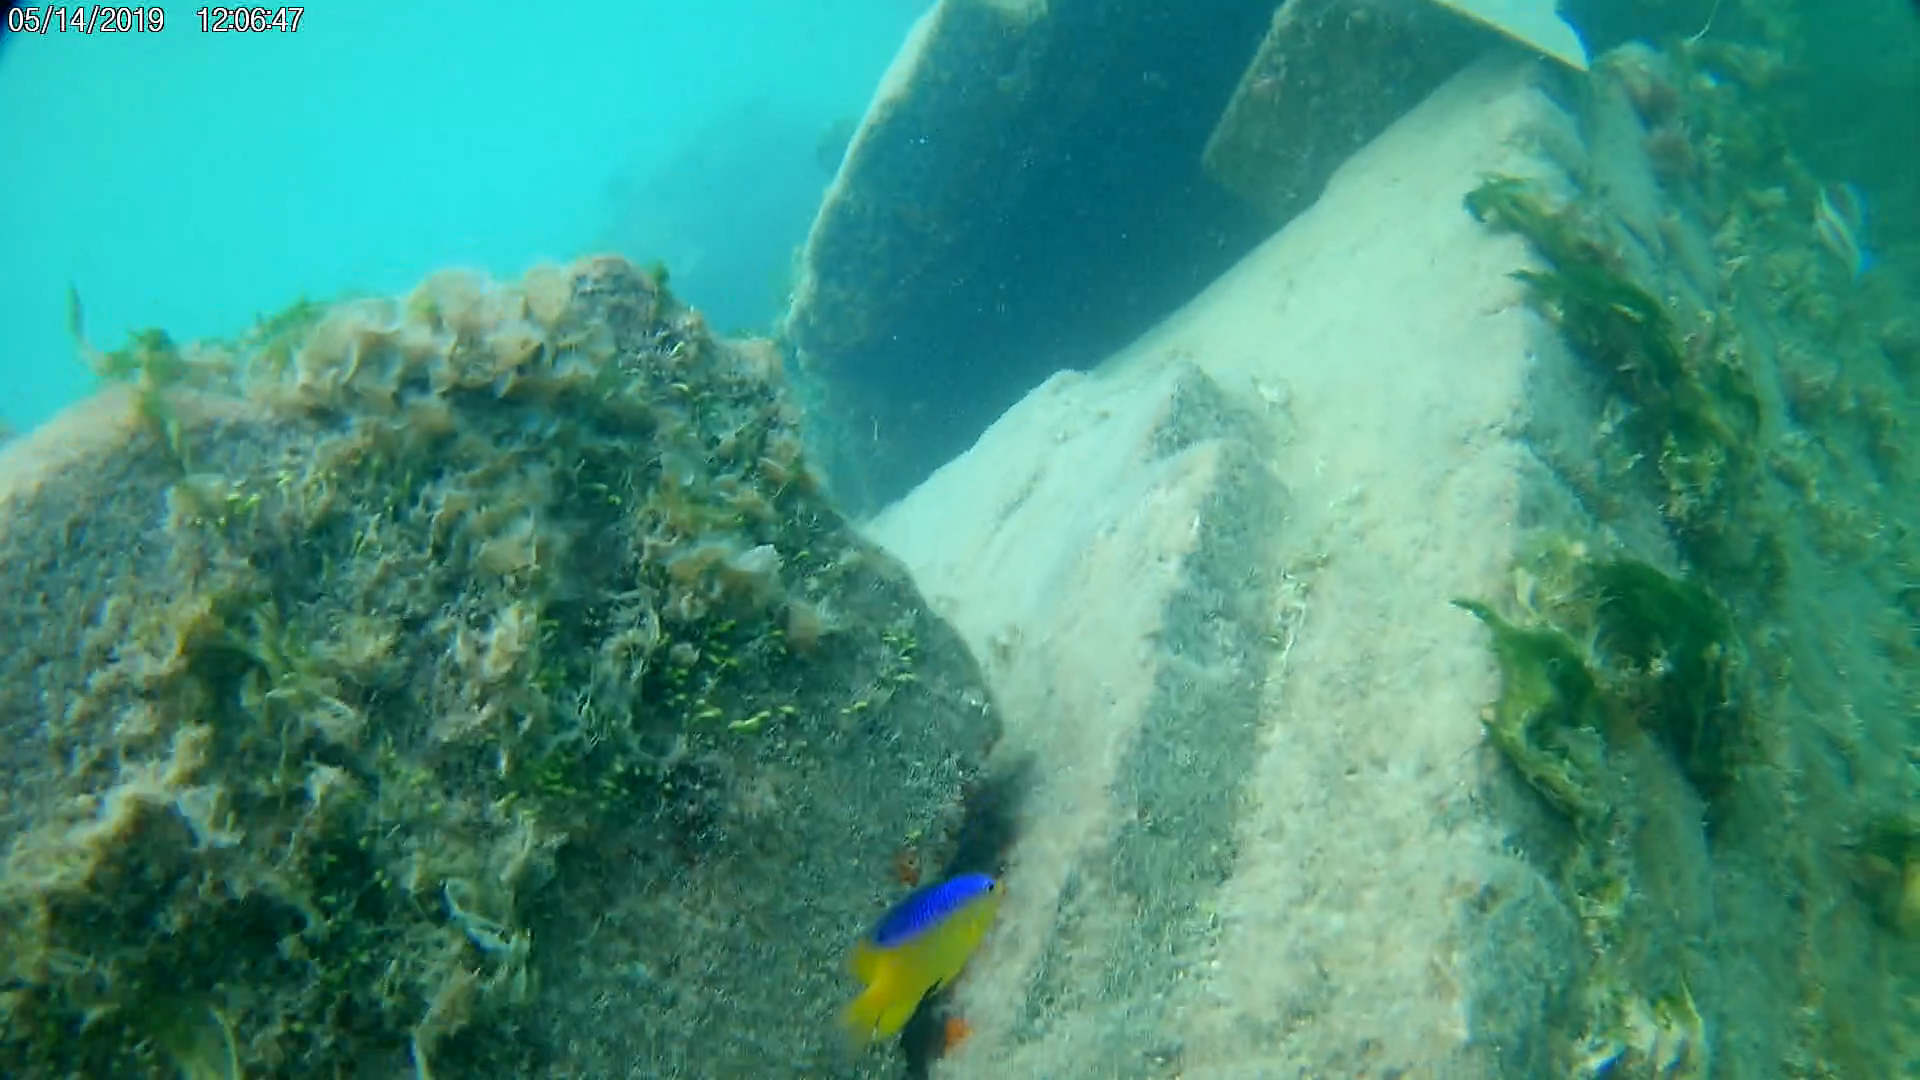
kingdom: Animalia
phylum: Chordata
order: Perciformes
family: Pomacentridae
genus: Stegastes
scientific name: Stegastes leucostictus
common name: Beaugregory
